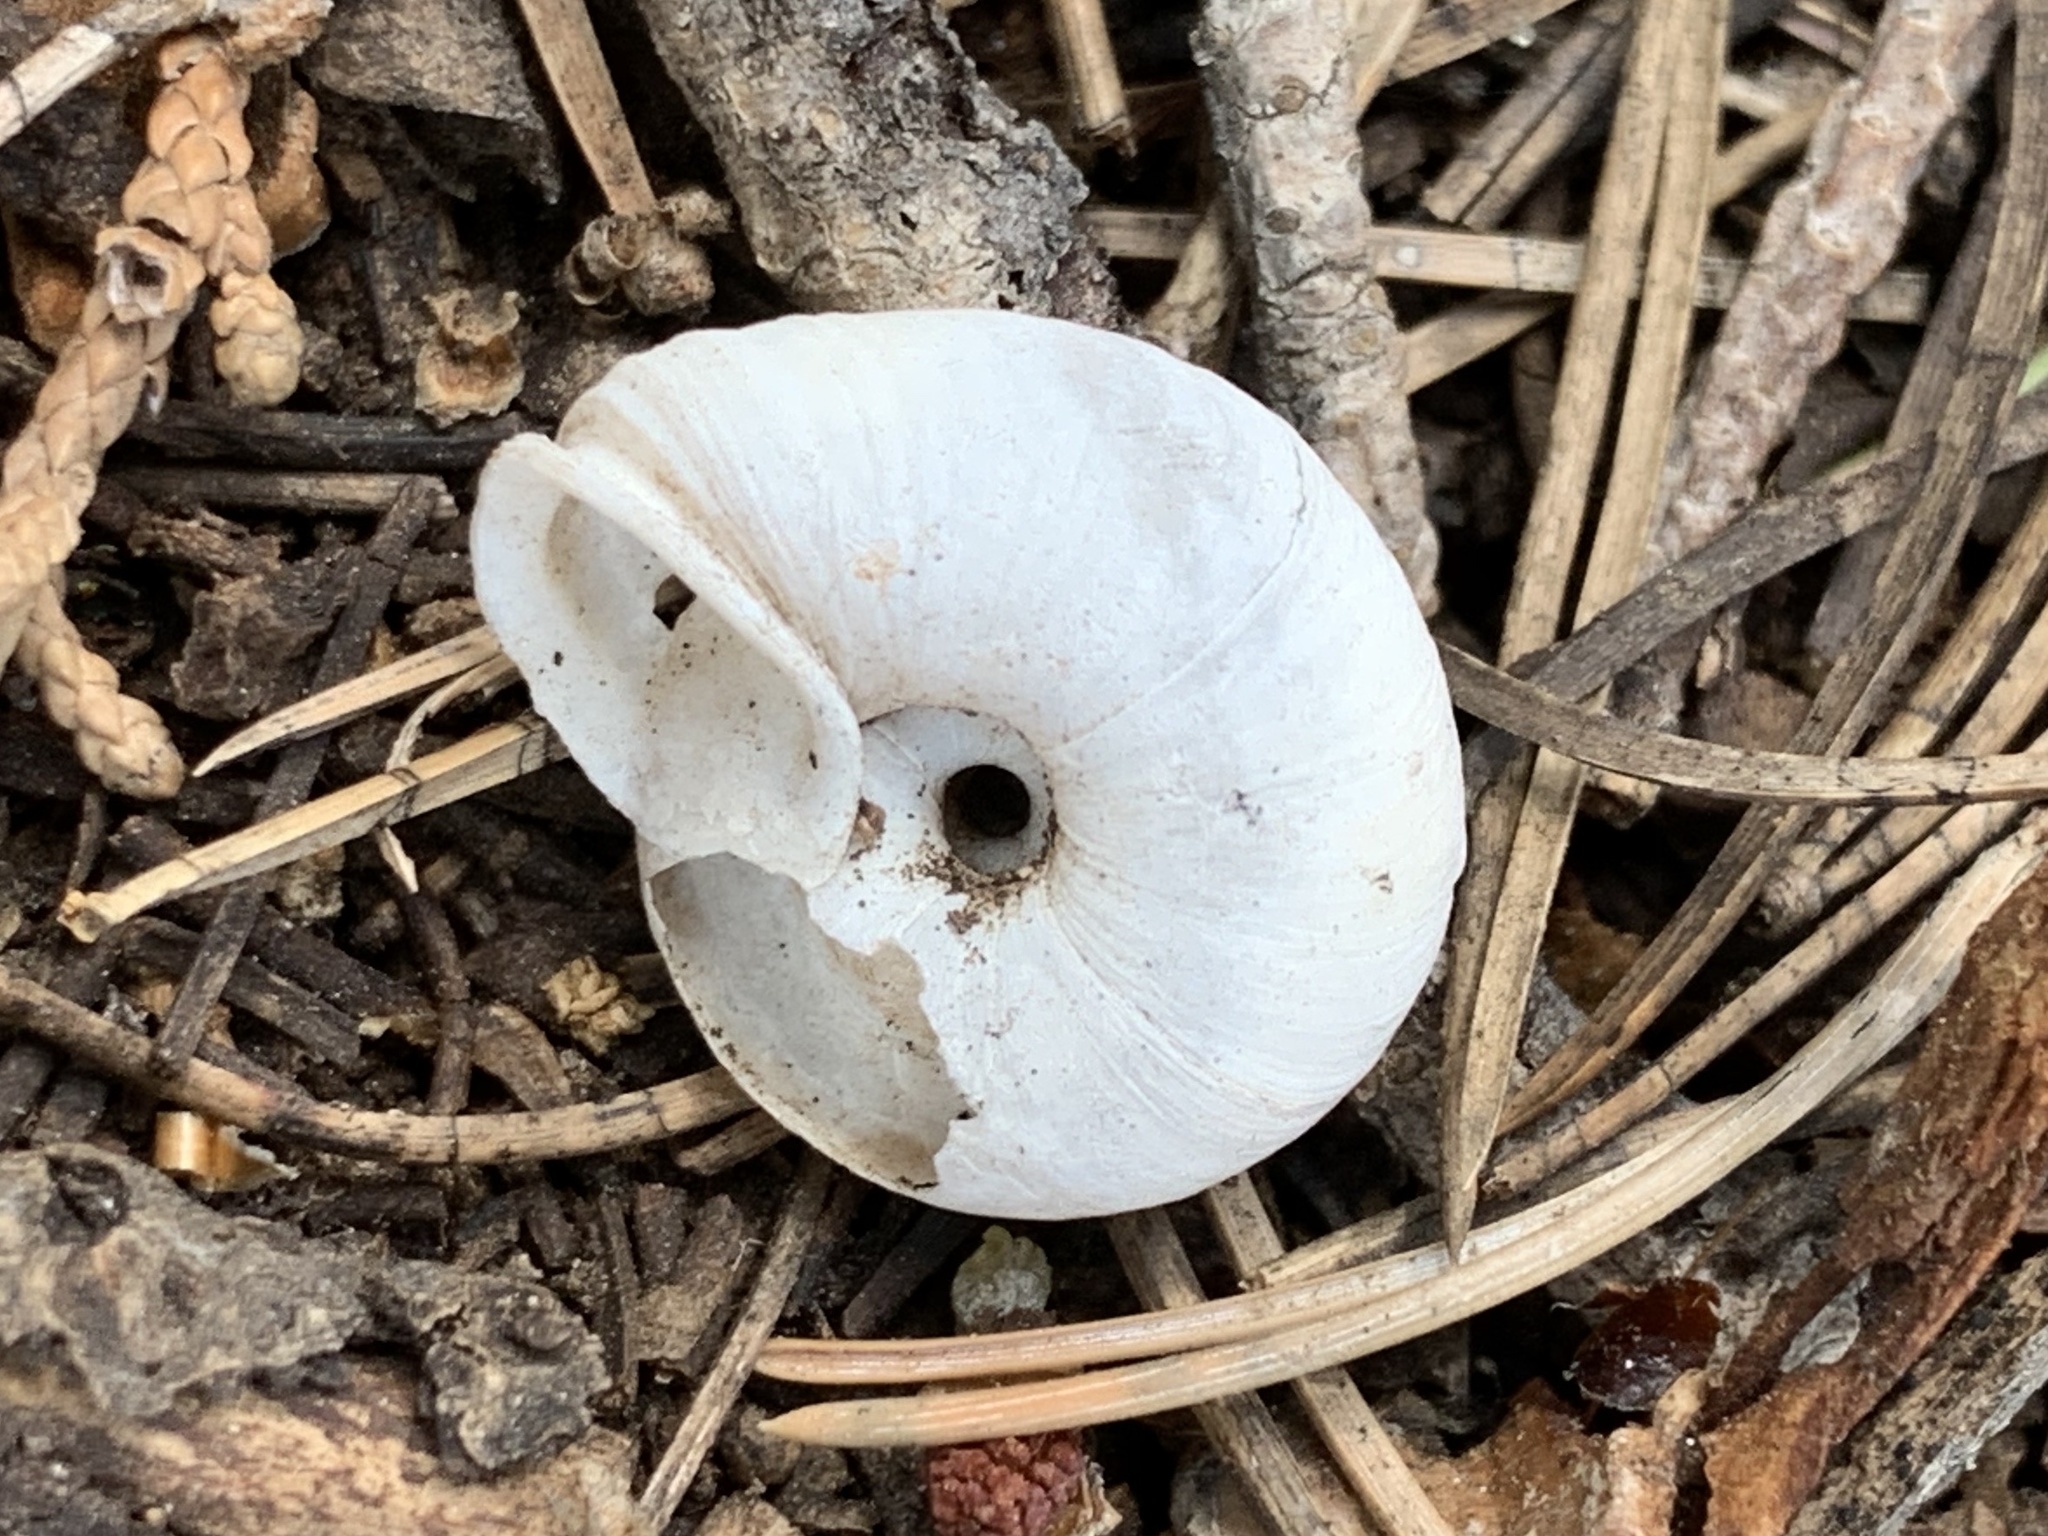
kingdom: Animalia
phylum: Mollusca
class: Gastropoda
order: Stylommatophora
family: Polygyridae
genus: Ashmunella
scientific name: Ashmunella rhyssa
